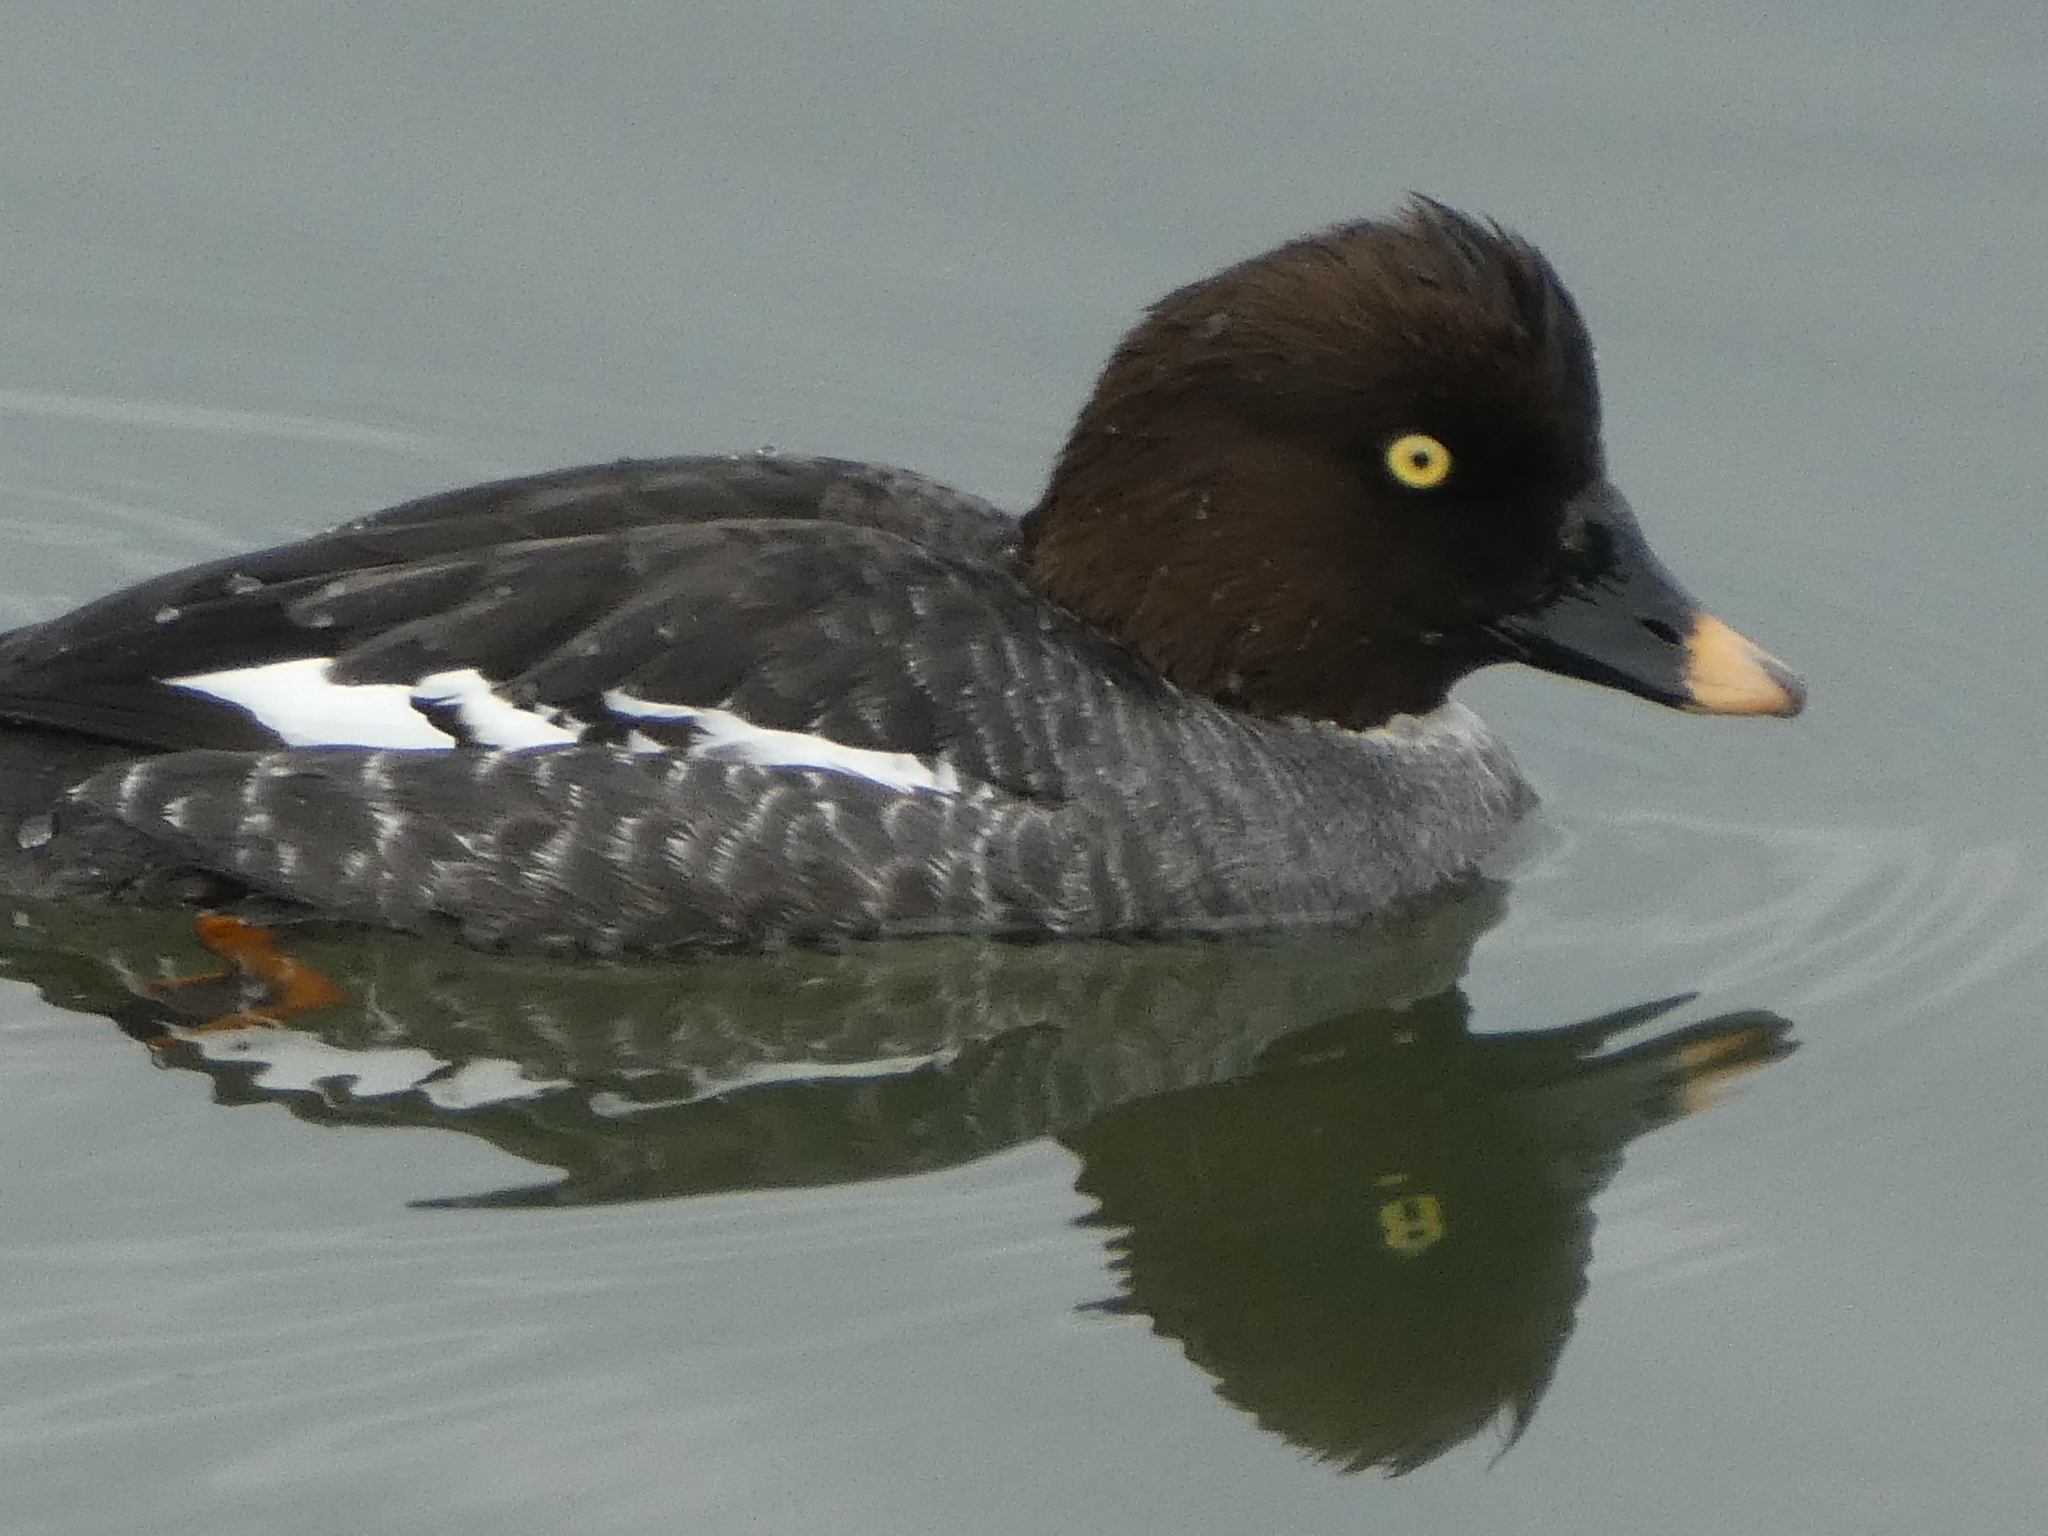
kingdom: Animalia
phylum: Chordata
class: Aves
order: Anseriformes
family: Anatidae
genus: Bucephala
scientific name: Bucephala clangula
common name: Common goldeneye
